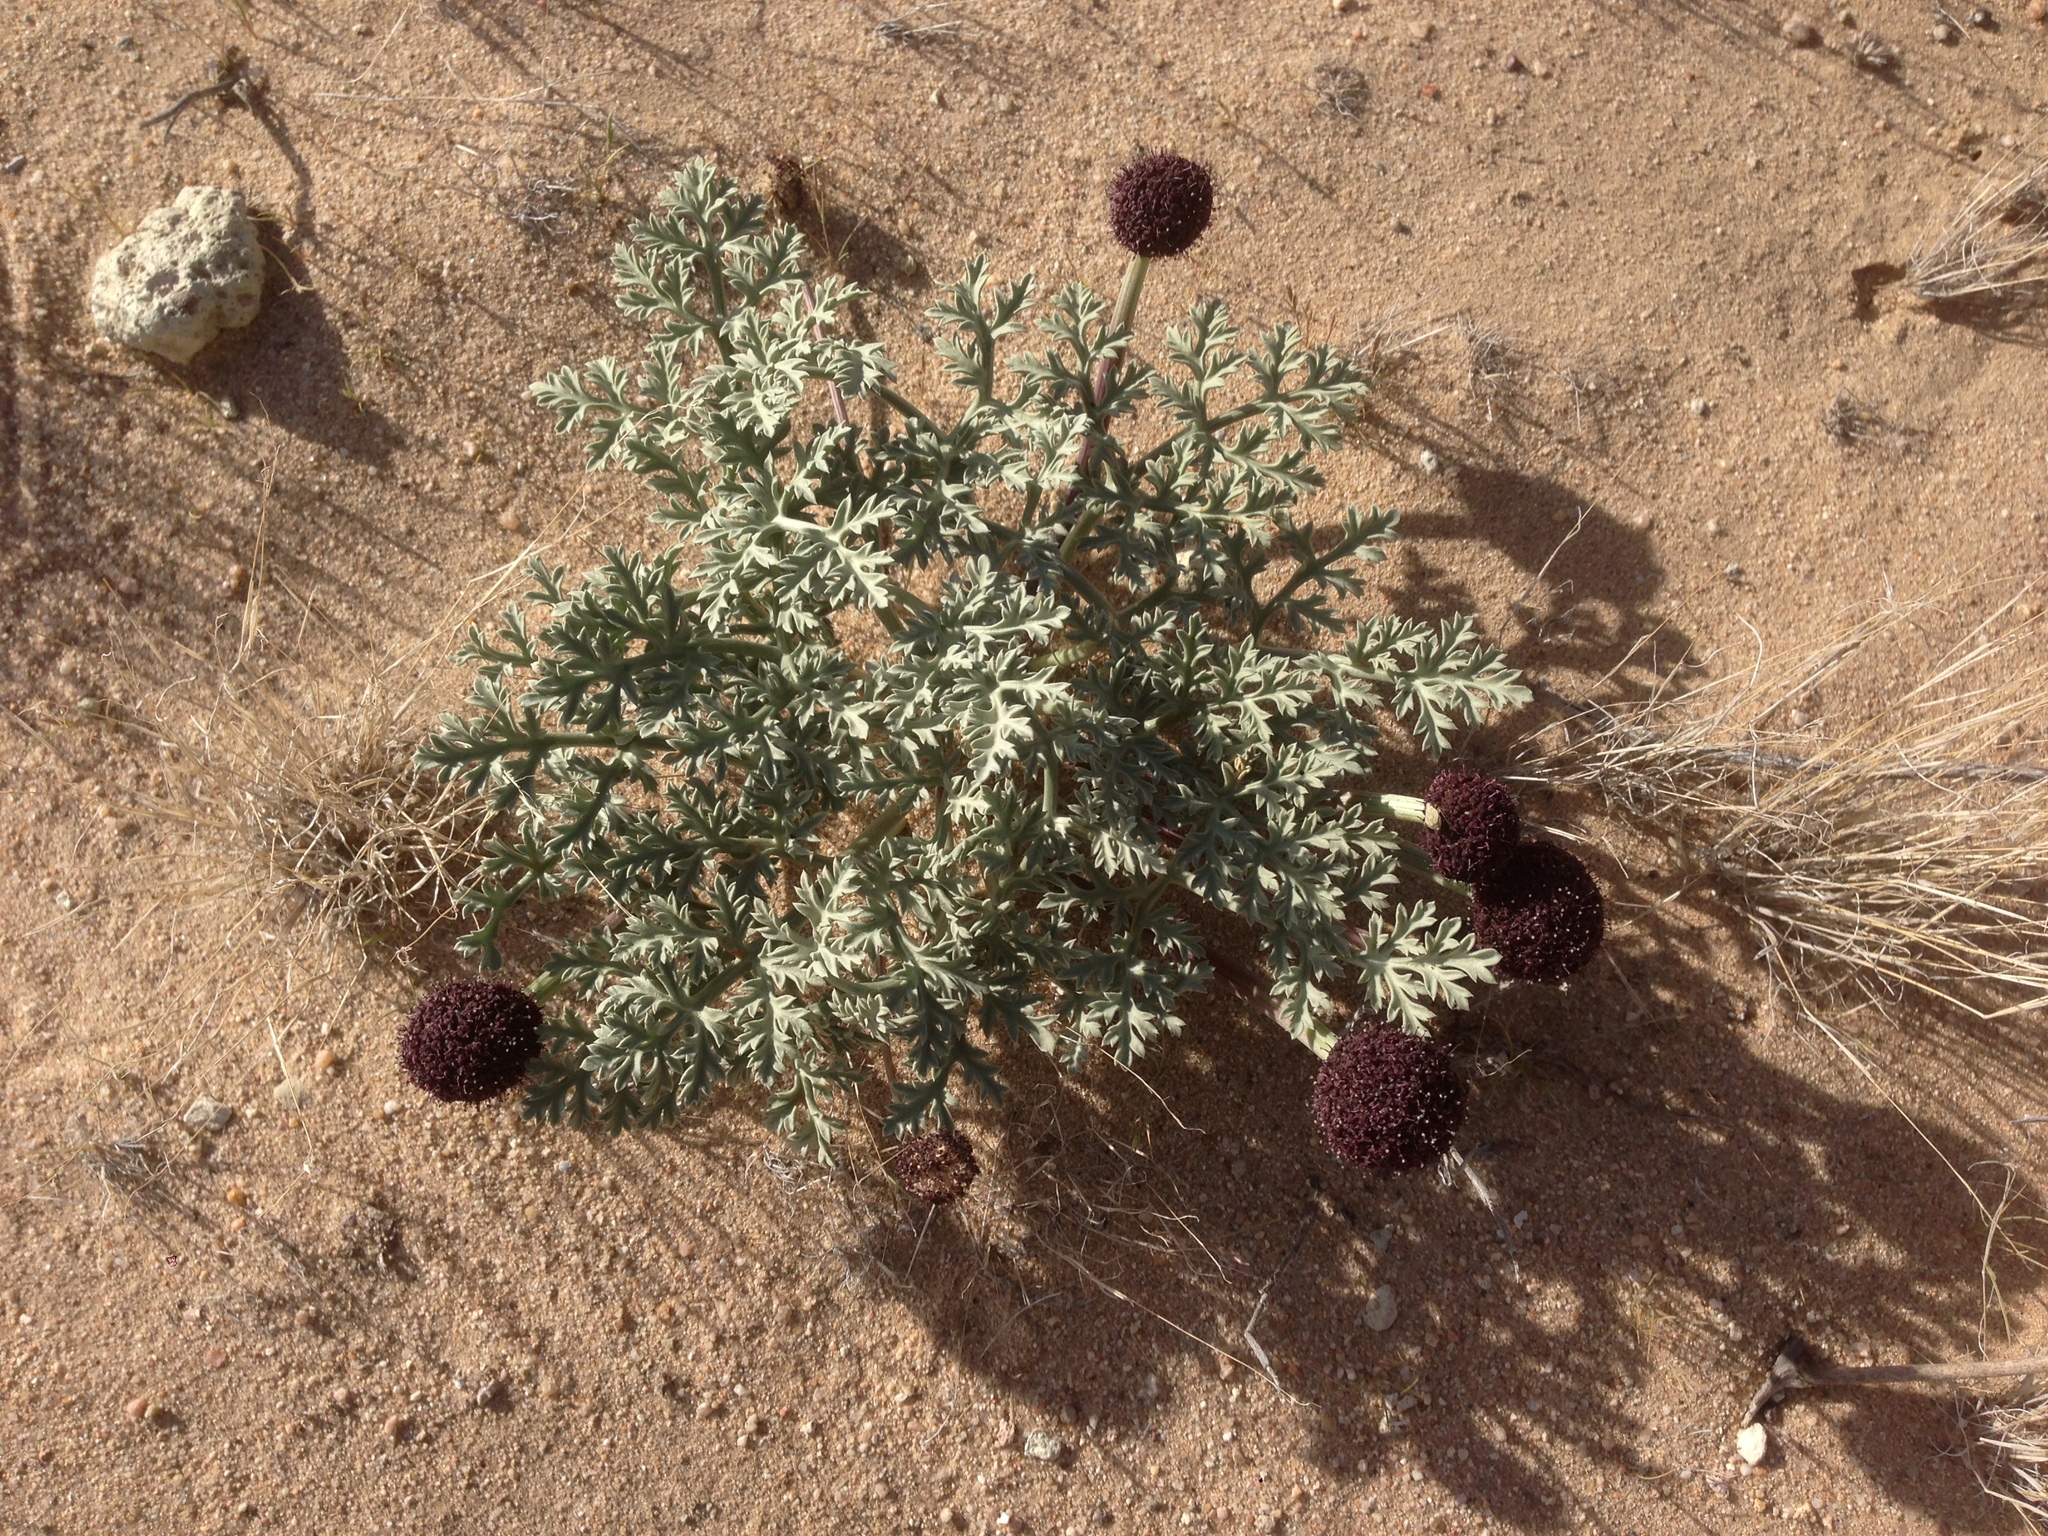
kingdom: Plantae
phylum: Tracheophyta
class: Magnoliopsida
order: Apiales
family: Apiaceae
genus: Cymopterus
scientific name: Cymopterus deserticola
